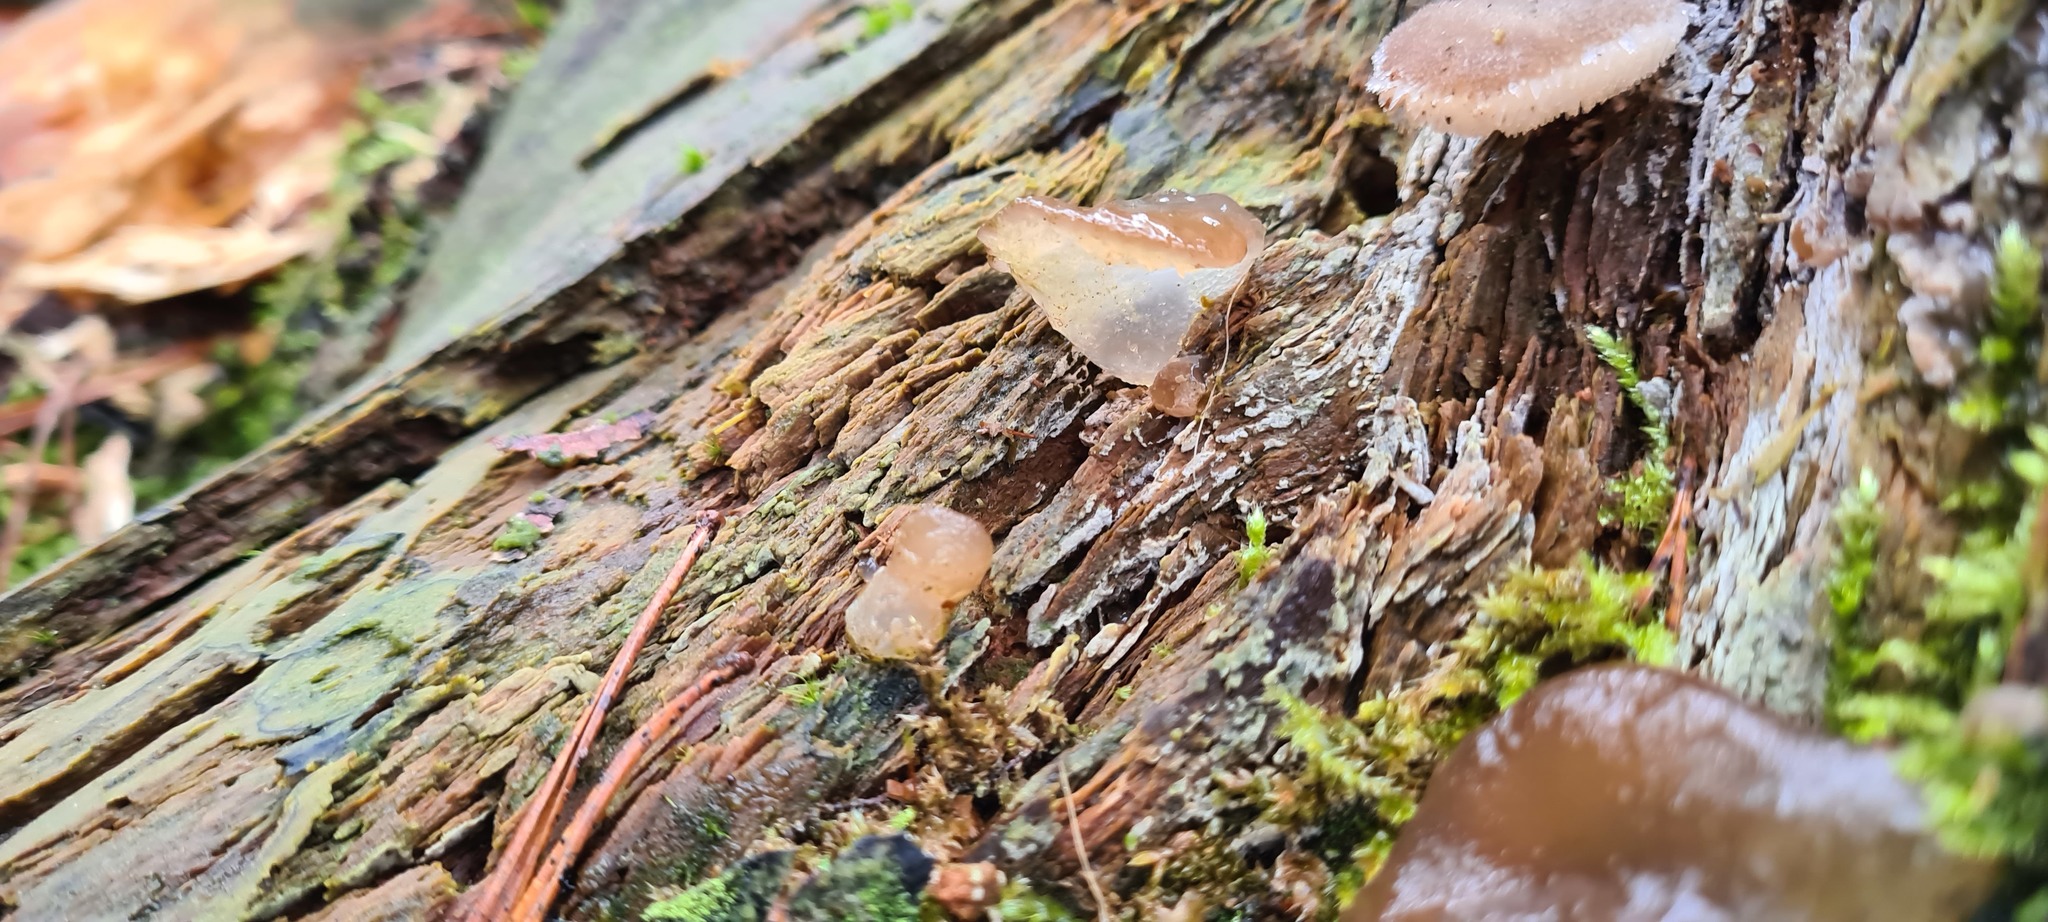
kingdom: Fungi
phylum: Basidiomycota
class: Agaricomycetes
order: Auriculariales
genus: Pseudohydnum
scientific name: Pseudohydnum gelatinosum
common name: Jelly tongue
